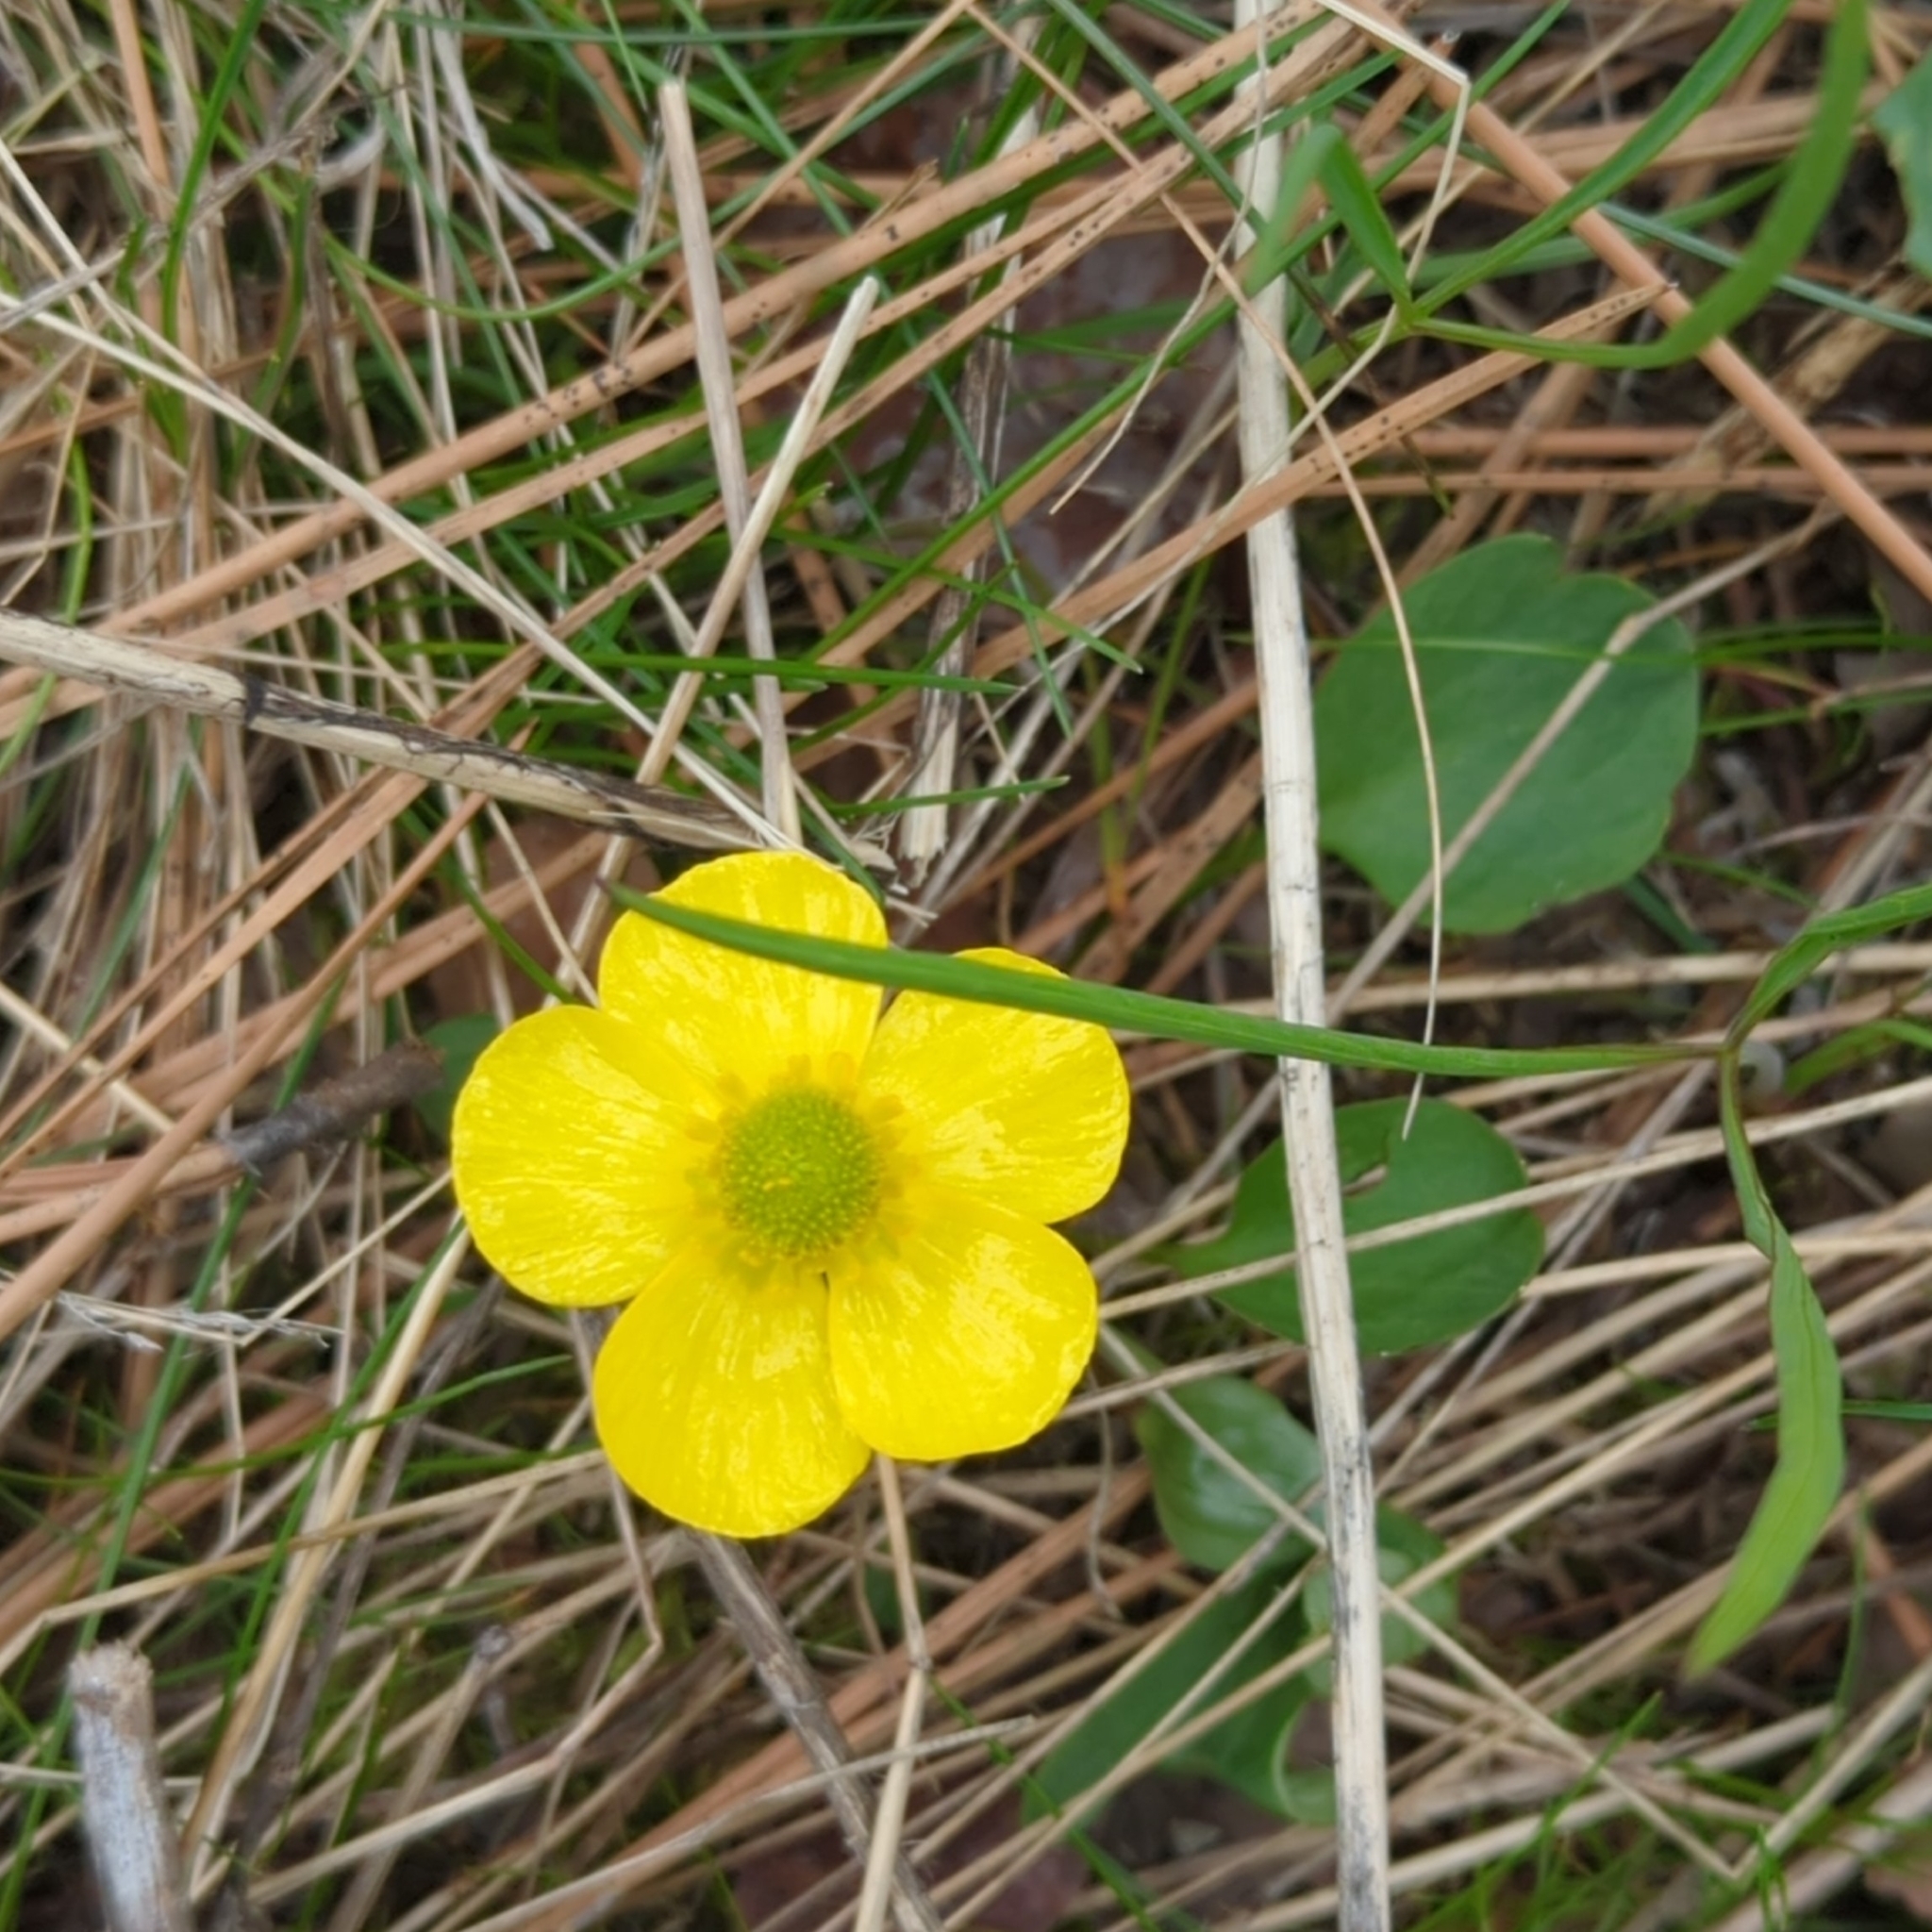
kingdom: Plantae
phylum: Tracheophyta
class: Magnoliopsida
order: Ranunculales
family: Ranunculaceae
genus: Ranunculus
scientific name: Ranunculus glaberrimus
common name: Sagebrush buttercup
